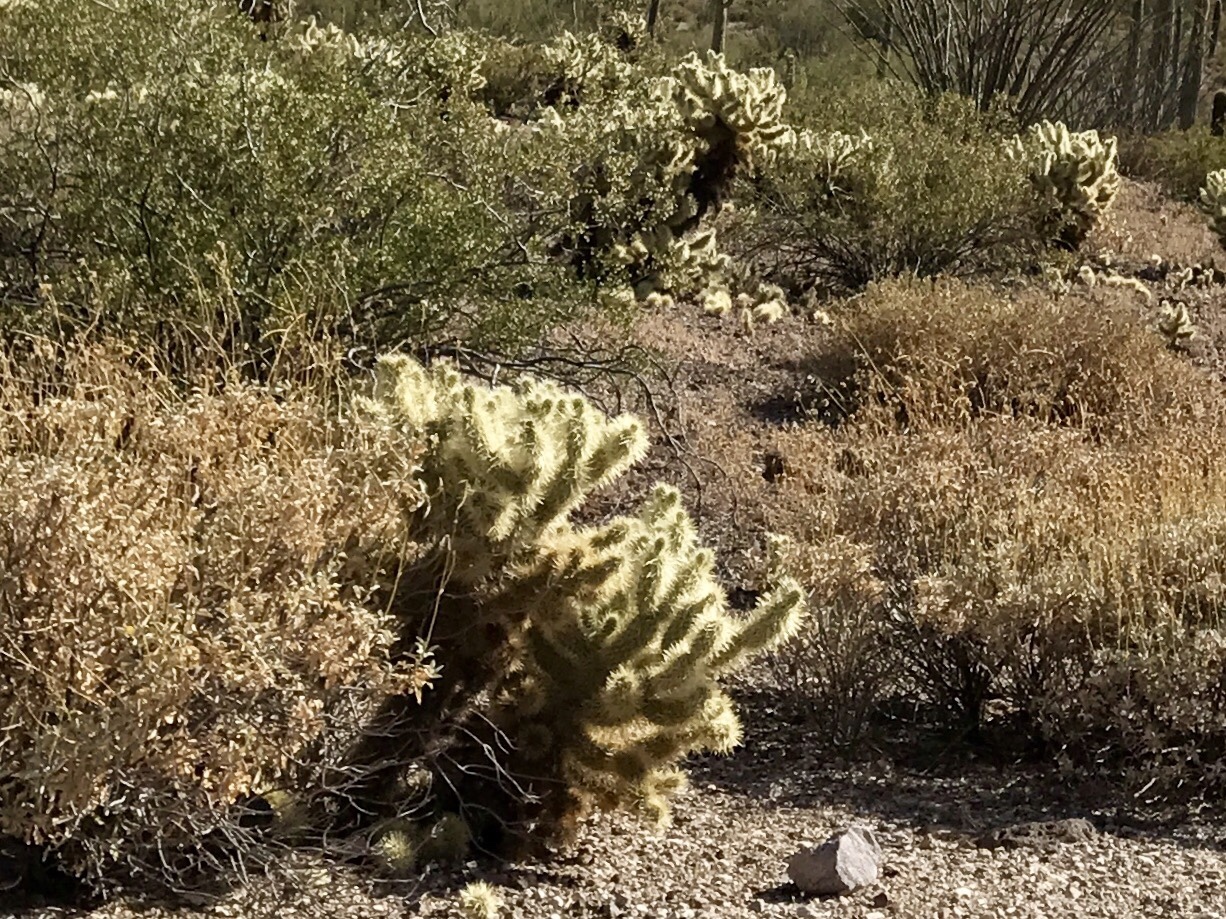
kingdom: Plantae
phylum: Tracheophyta
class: Magnoliopsida
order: Caryophyllales
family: Cactaceae
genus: Cylindropuntia
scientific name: Cylindropuntia fosbergii
